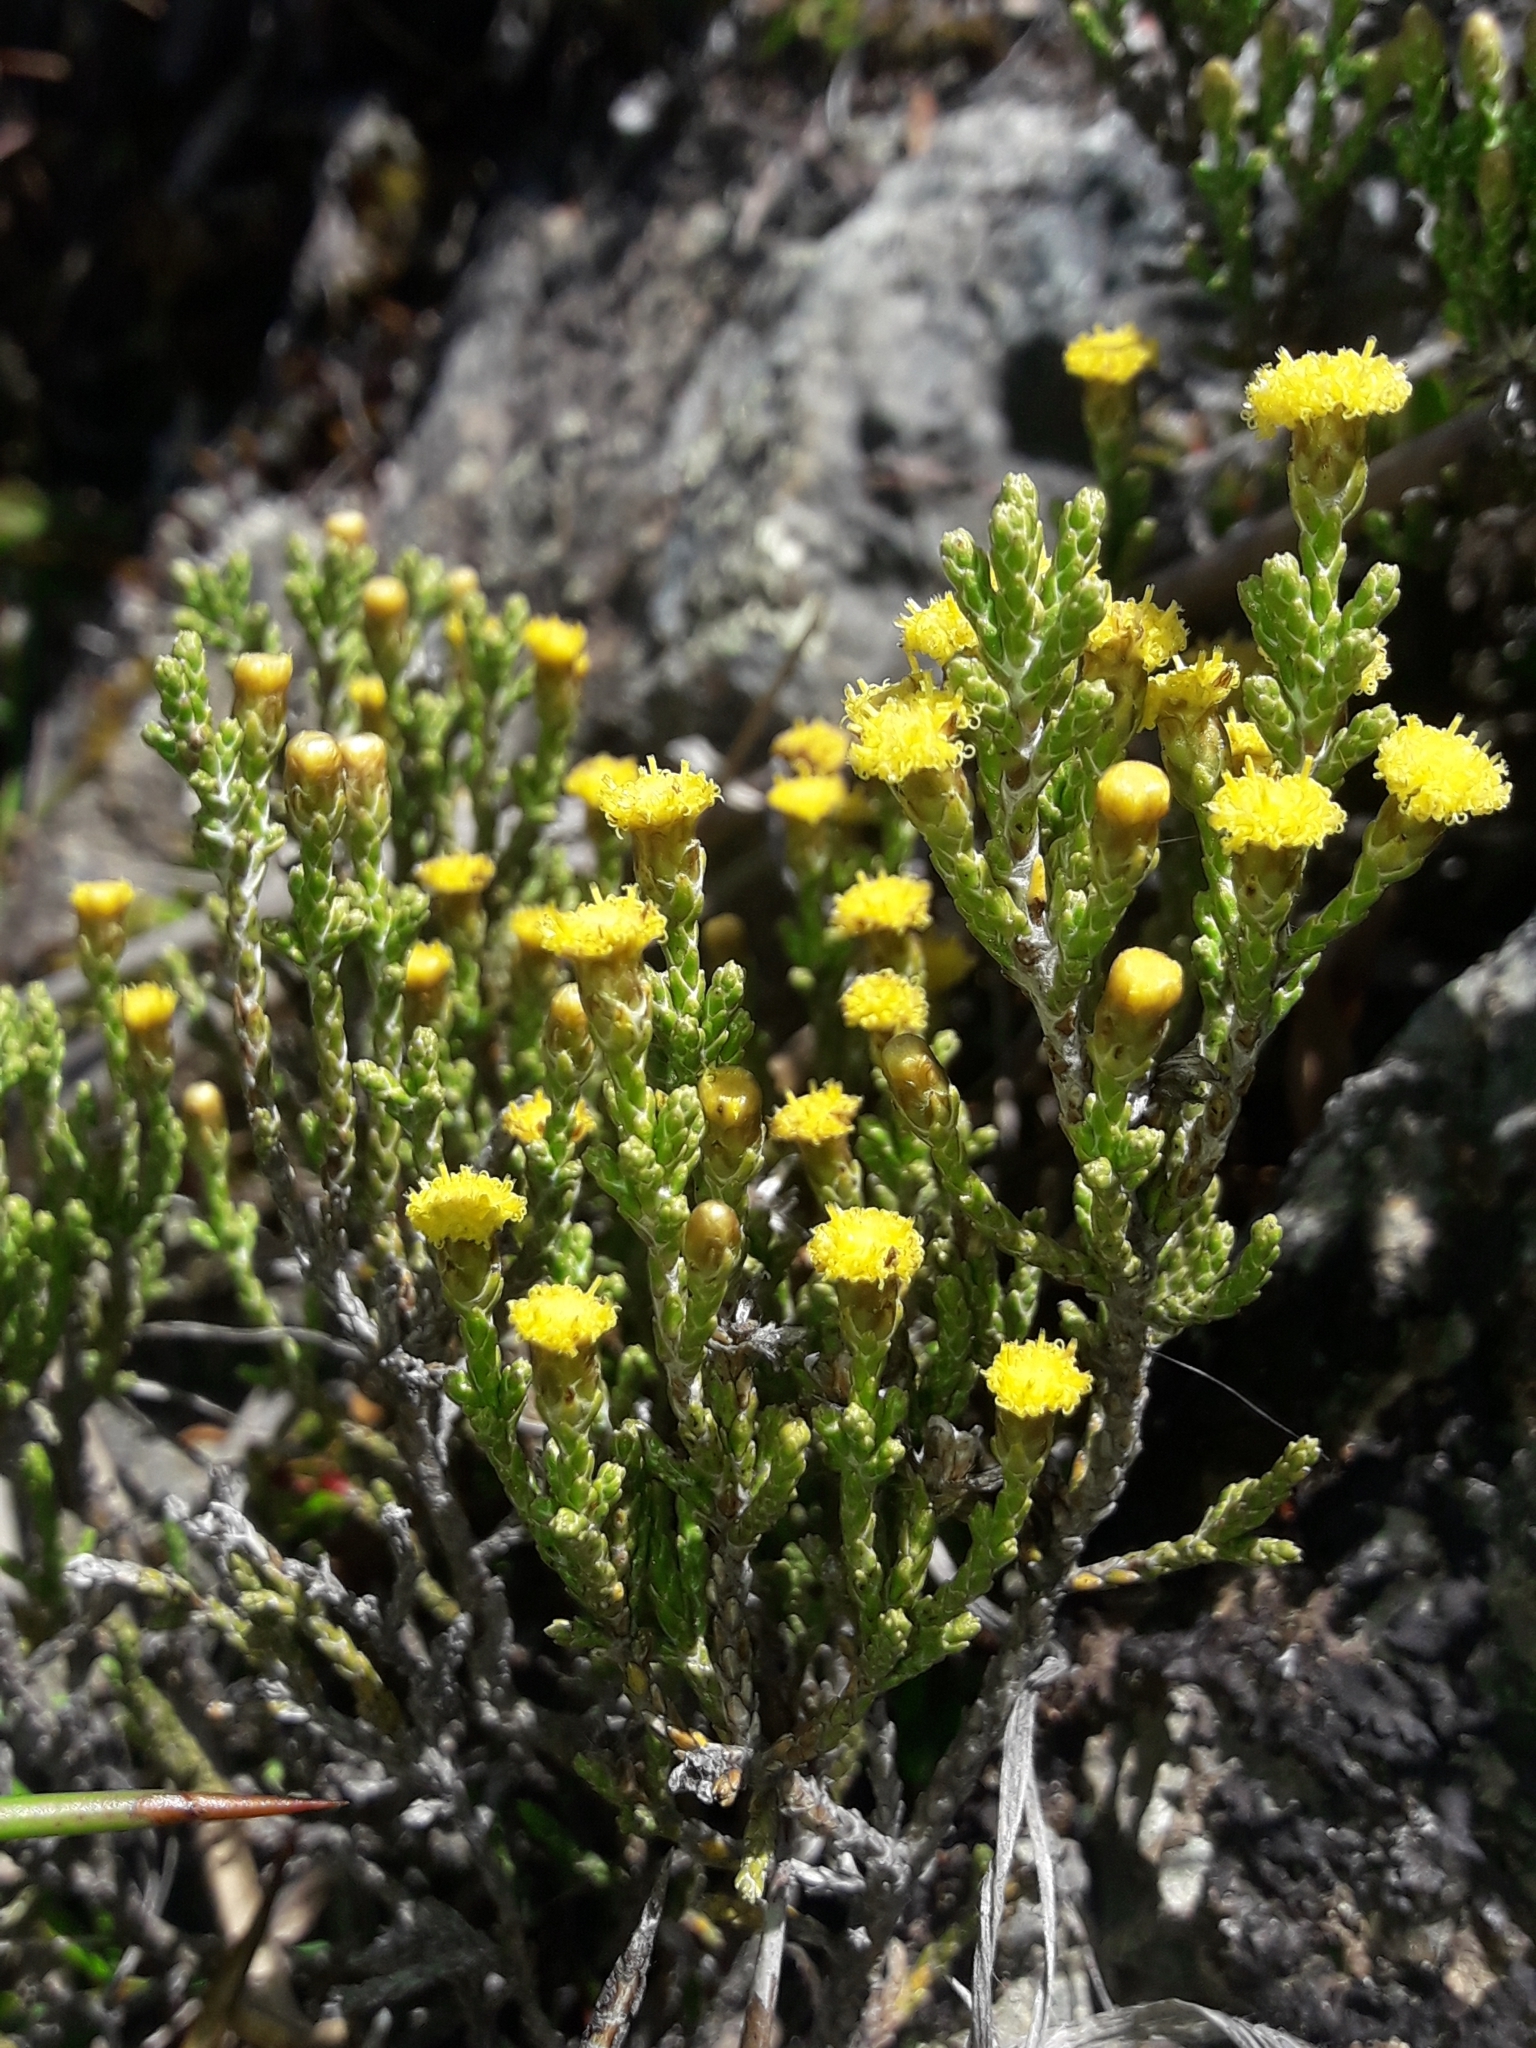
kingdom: Plantae
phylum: Tracheophyta
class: Magnoliopsida
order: Asterales
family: Asteraceae
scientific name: Asteraceae
